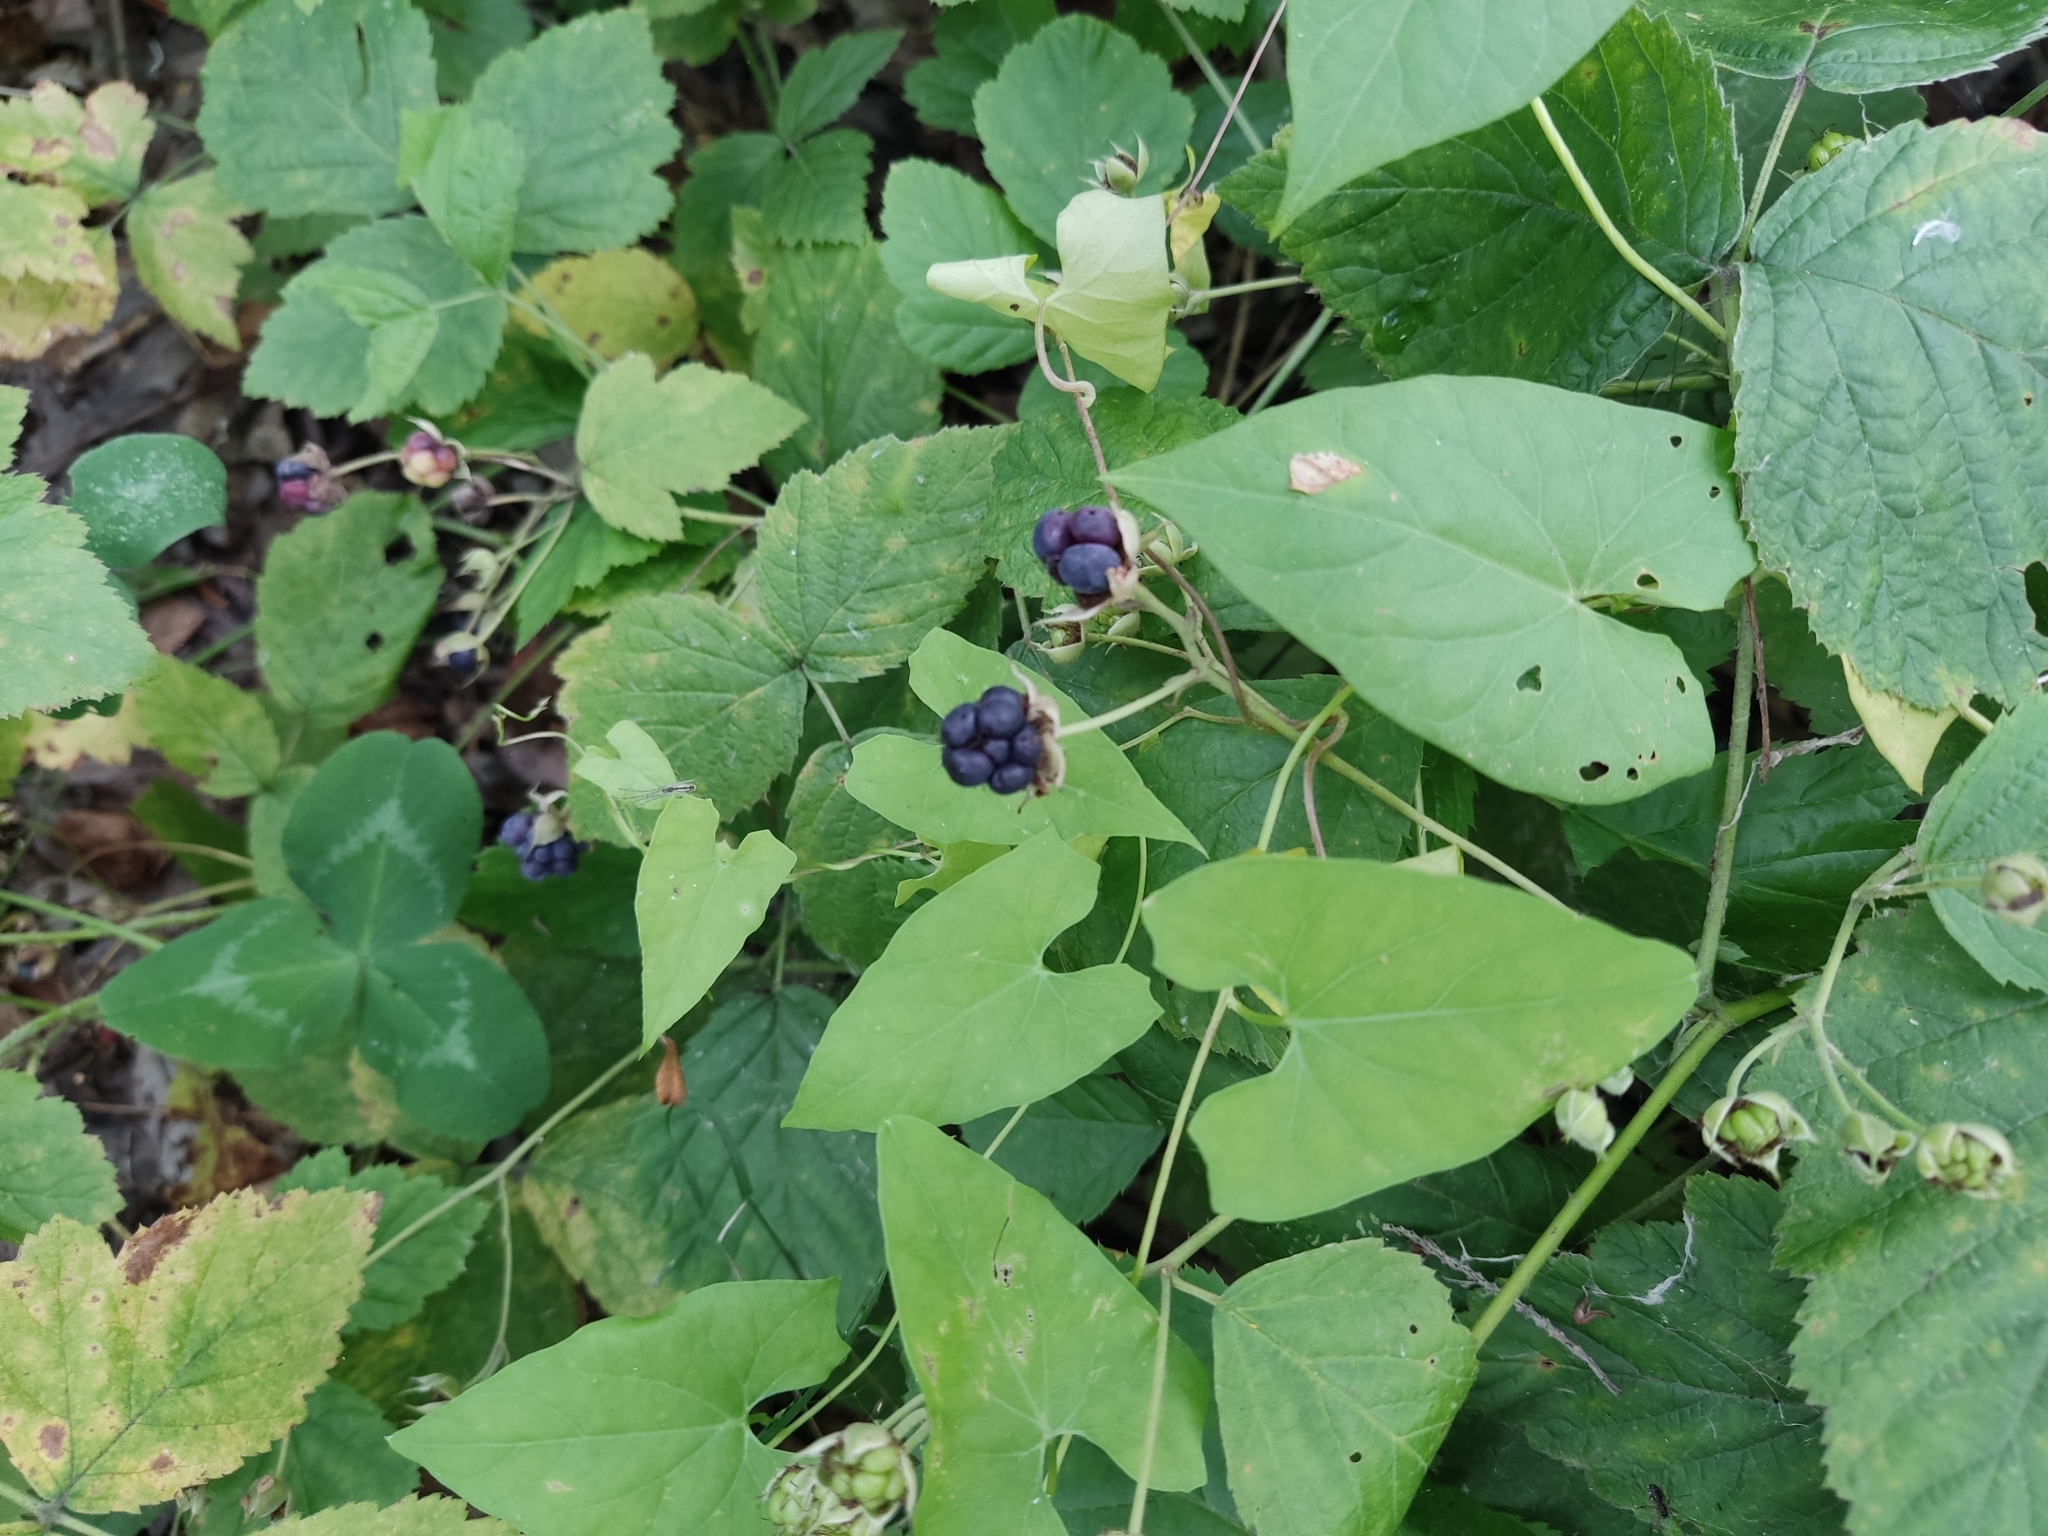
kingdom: Plantae
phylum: Tracheophyta
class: Magnoliopsida
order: Rosales
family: Rosaceae
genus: Rubus
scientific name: Rubus caesius
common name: Dewberry
